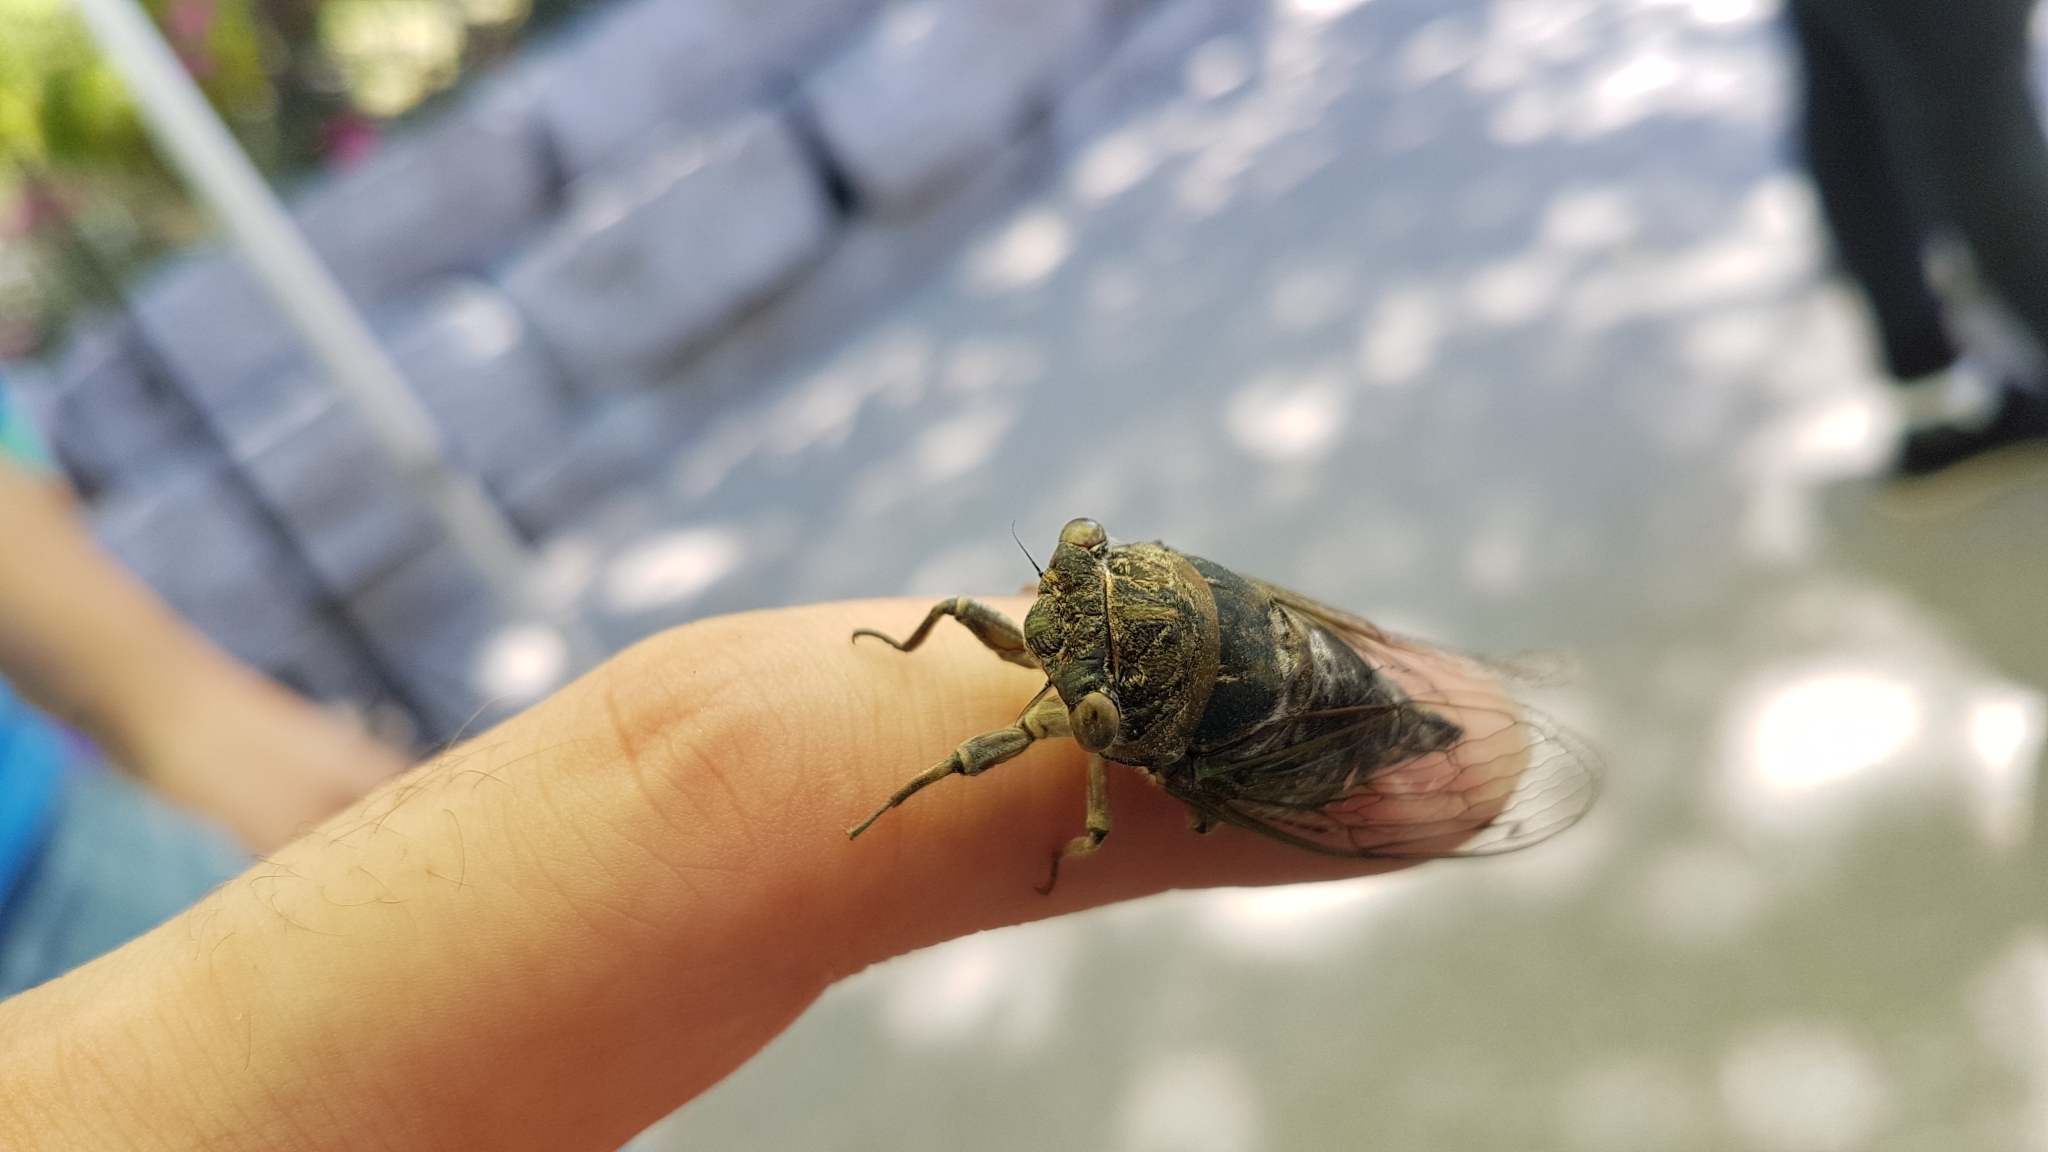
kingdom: Animalia
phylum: Arthropoda
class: Insecta
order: Hemiptera
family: Cicadidae
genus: Neotibicen
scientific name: Neotibicen canicularis
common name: God-day cicada
